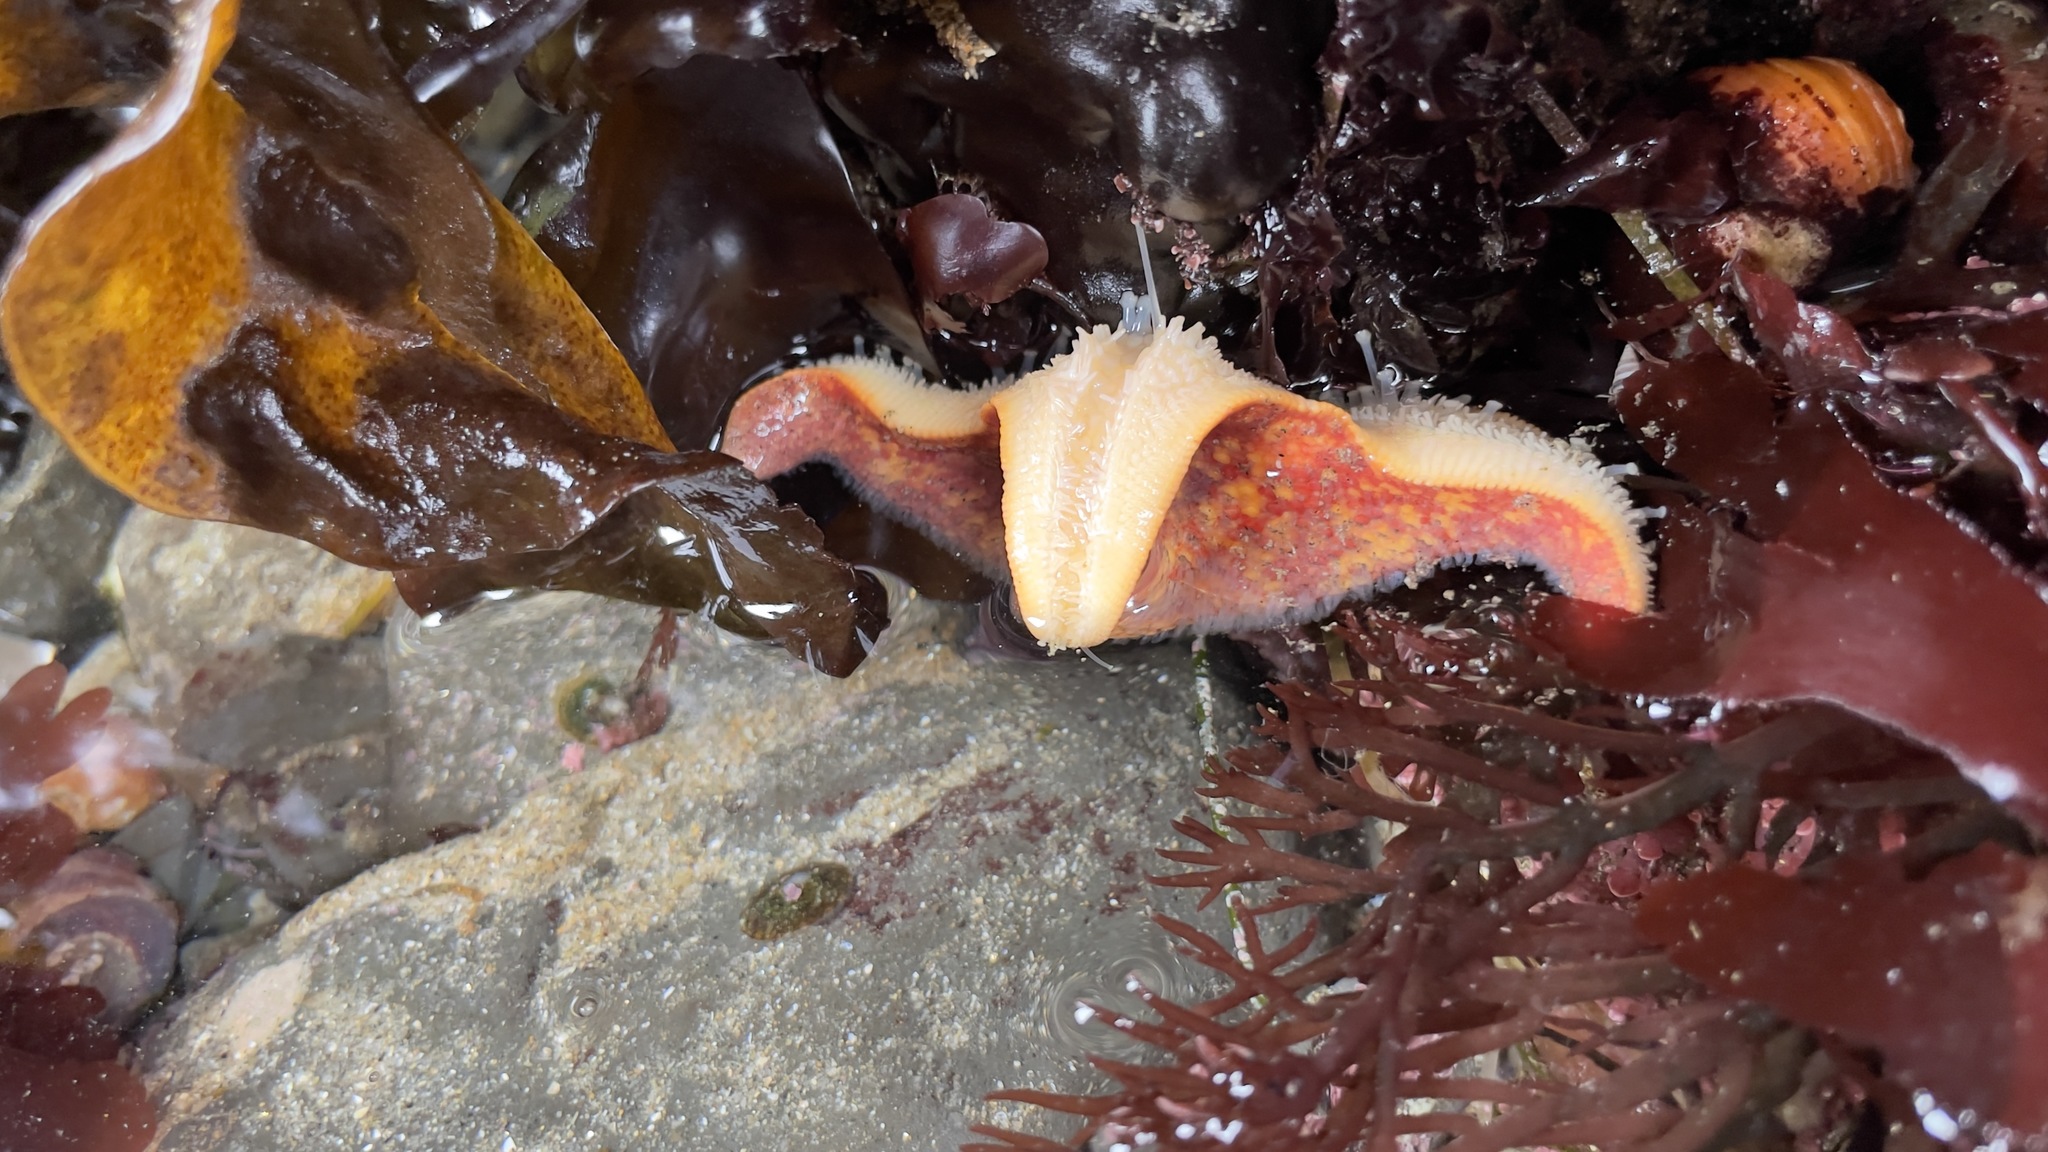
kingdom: Animalia
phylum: Echinodermata
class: Asteroidea
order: Valvatida
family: Asterinidae
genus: Patiria
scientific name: Patiria miniata
